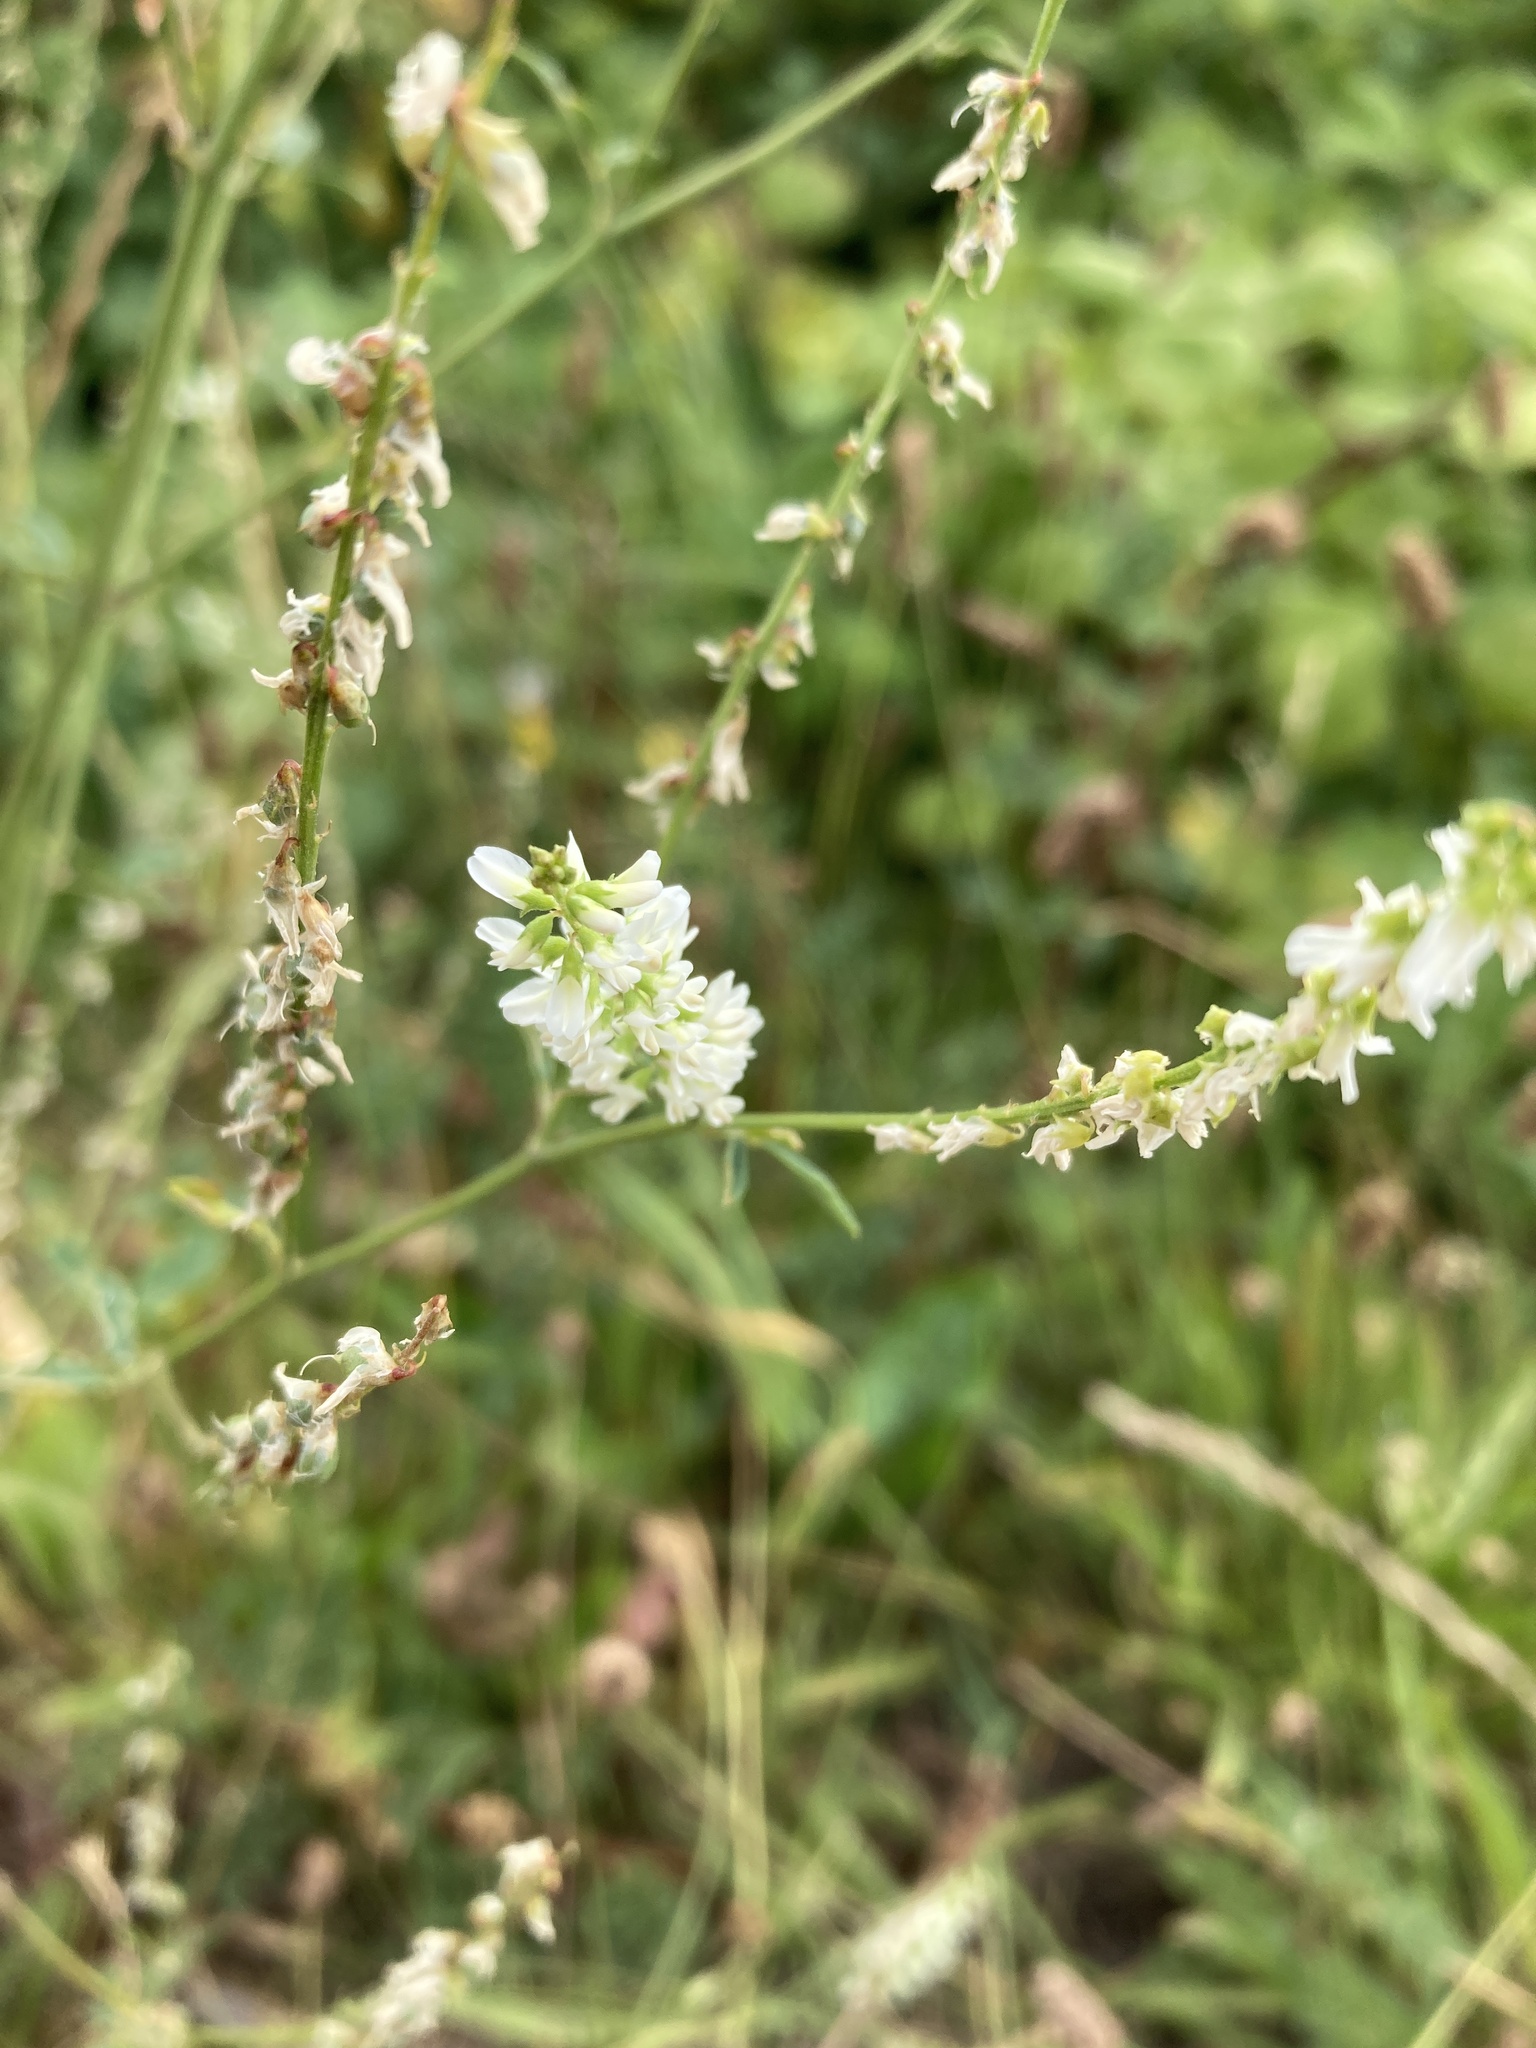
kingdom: Plantae
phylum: Tracheophyta
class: Magnoliopsida
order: Fabales
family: Fabaceae
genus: Melilotus
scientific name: Melilotus albus
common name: White melilot
